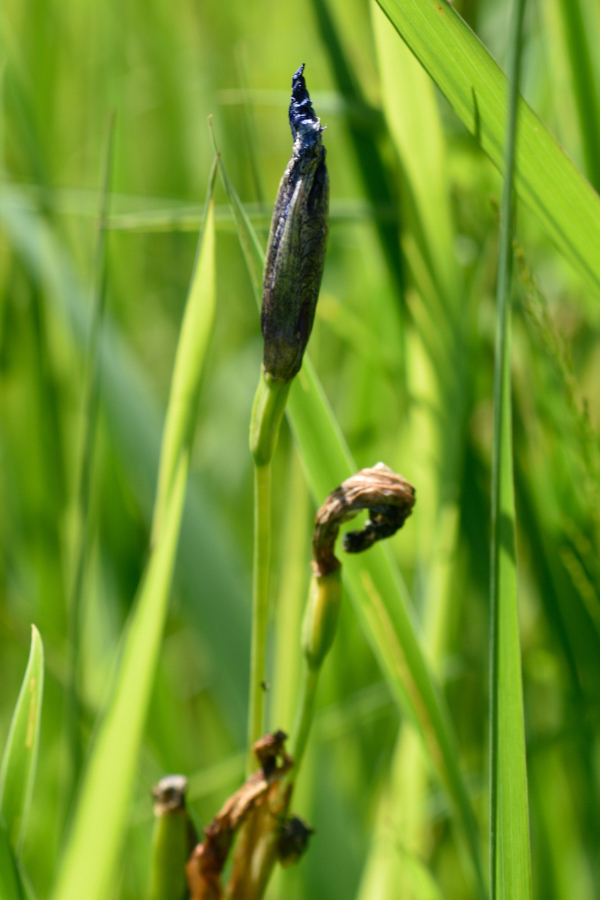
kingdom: Plantae
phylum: Tracheophyta
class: Liliopsida
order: Asparagales
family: Iridaceae
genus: Iris
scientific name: Iris sibirica
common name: Siberian iris
